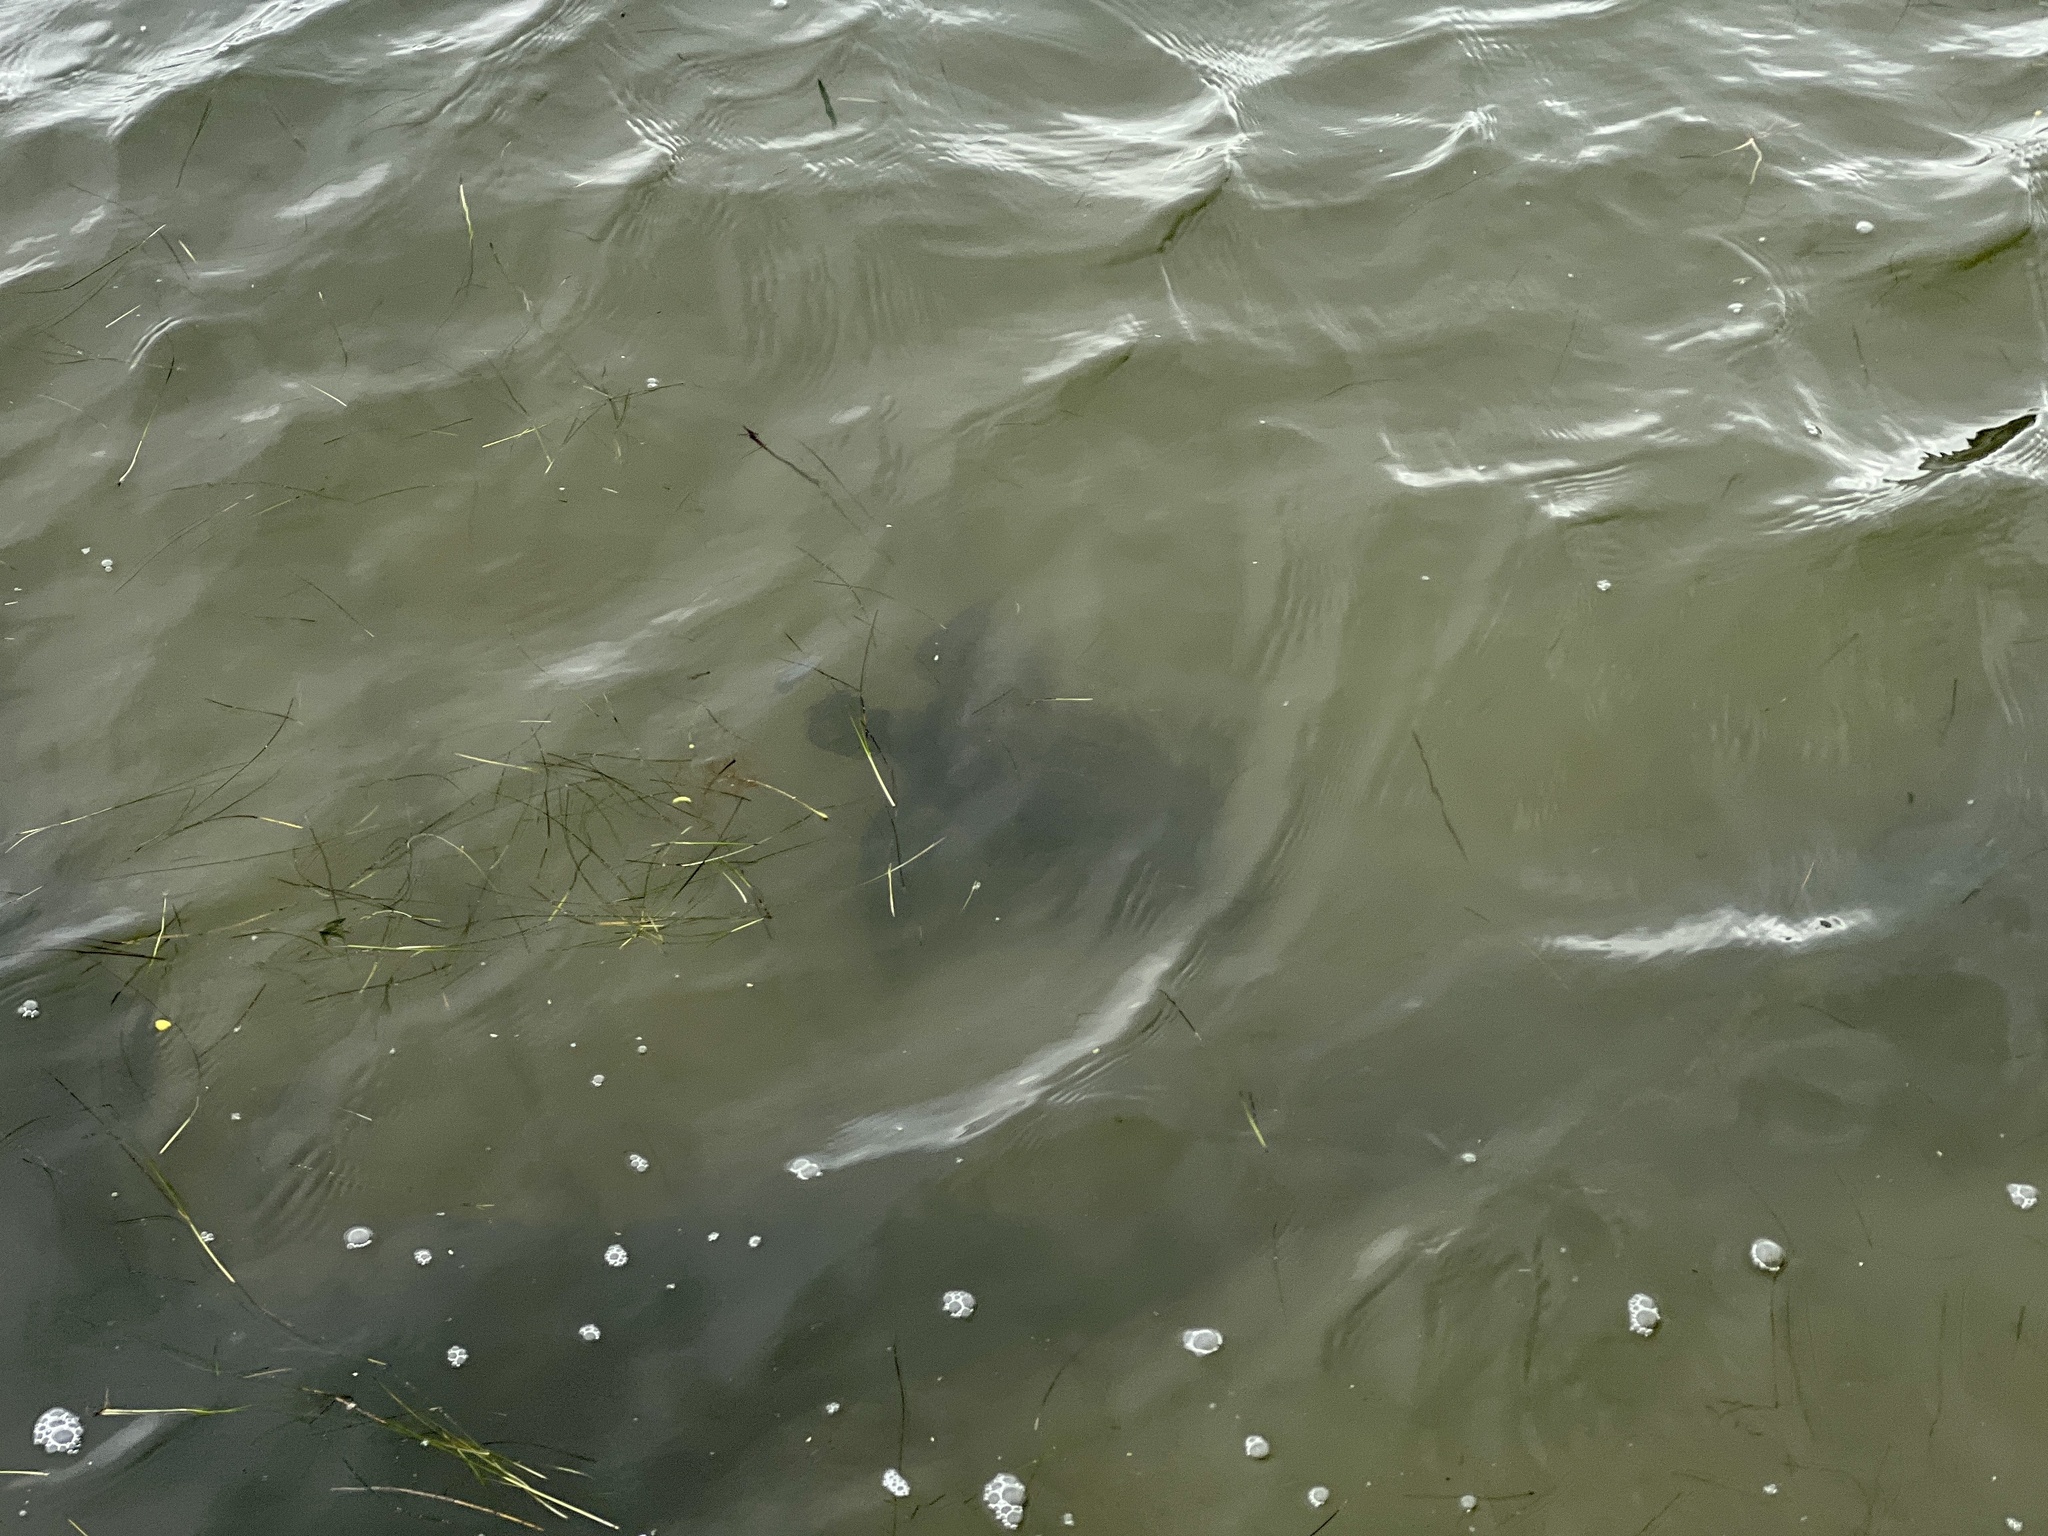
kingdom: Animalia
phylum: Chordata
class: Testudines
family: Cheloniidae
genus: Chelonia
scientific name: Chelonia mydas
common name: Green turtle
